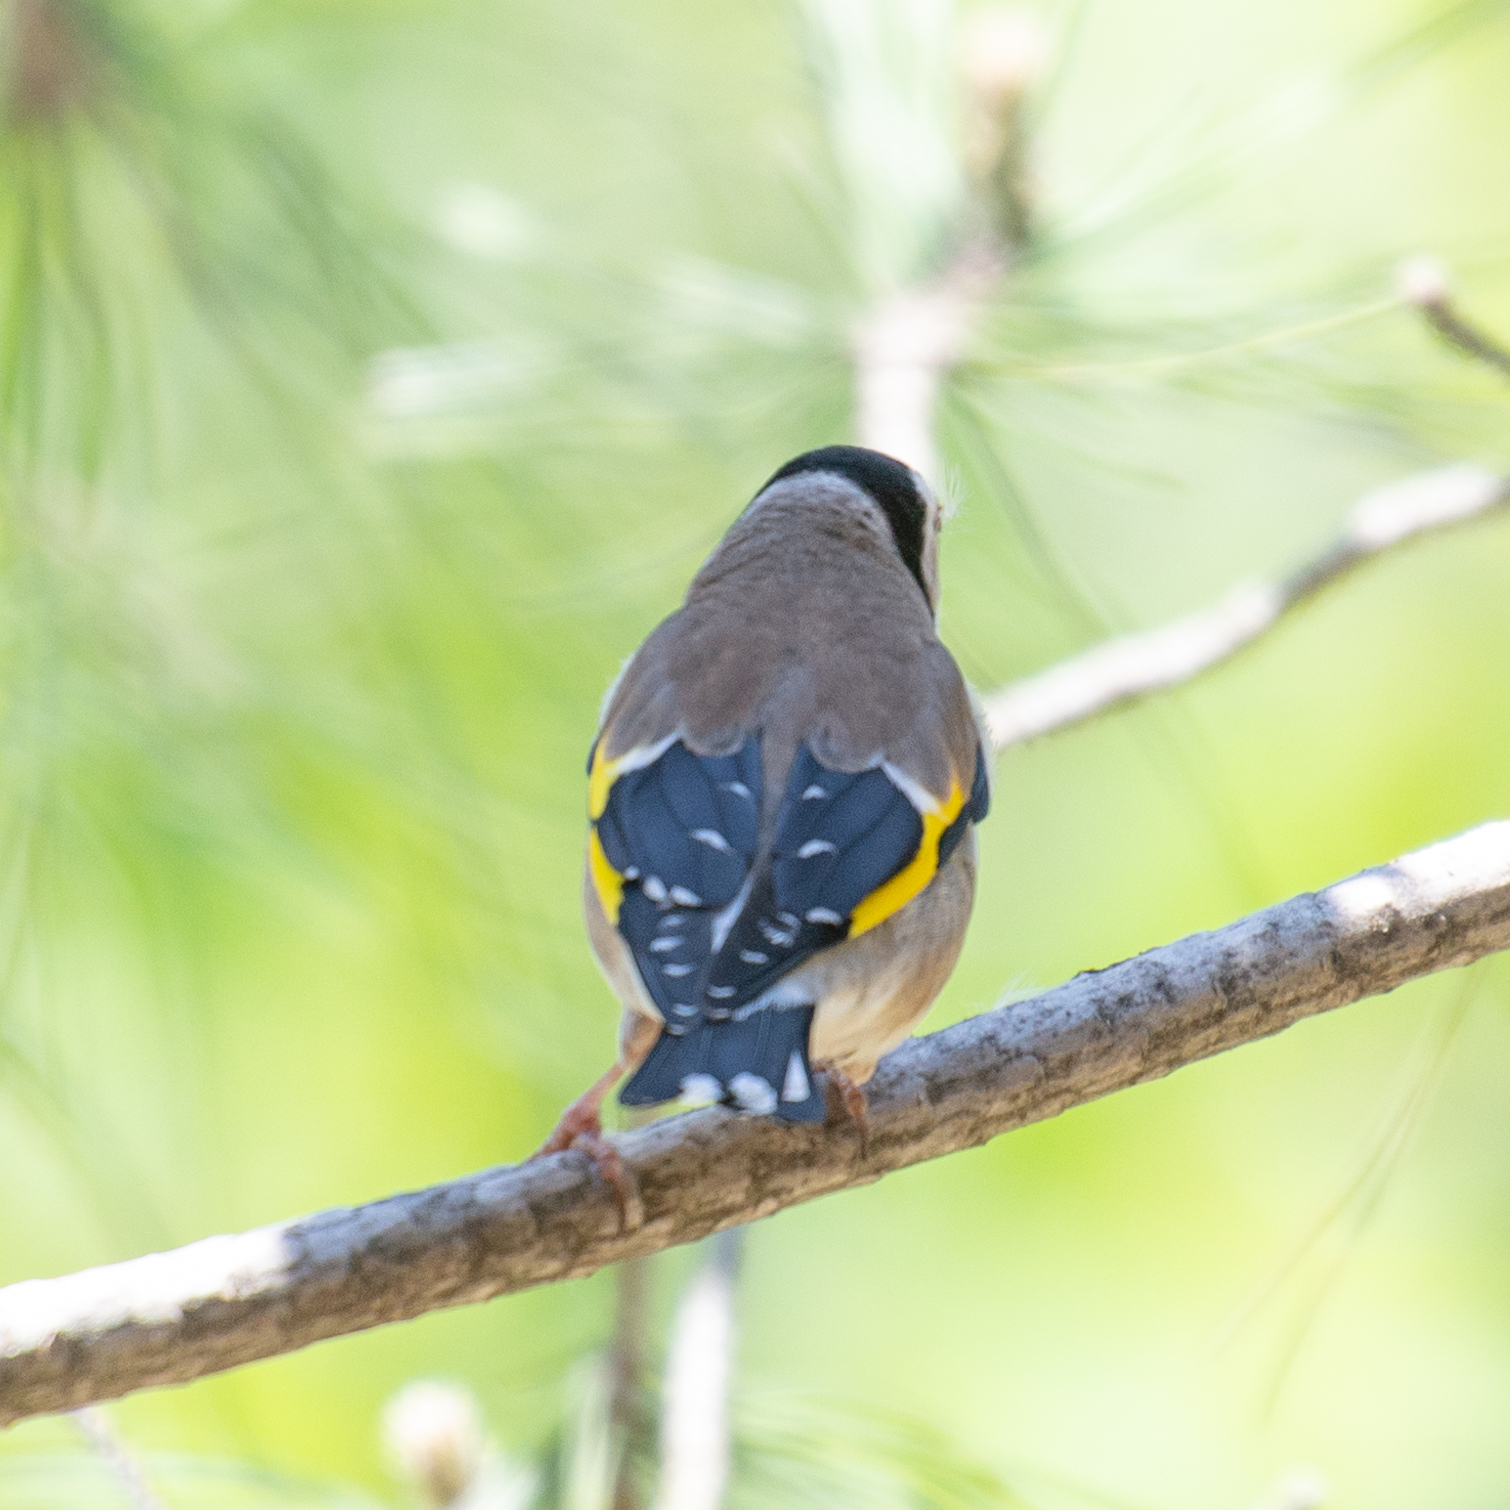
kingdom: Animalia
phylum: Chordata
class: Aves
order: Passeriformes
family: Fringillidae
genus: Carduelis
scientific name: Carduelis carduelis
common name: European goldfinch
